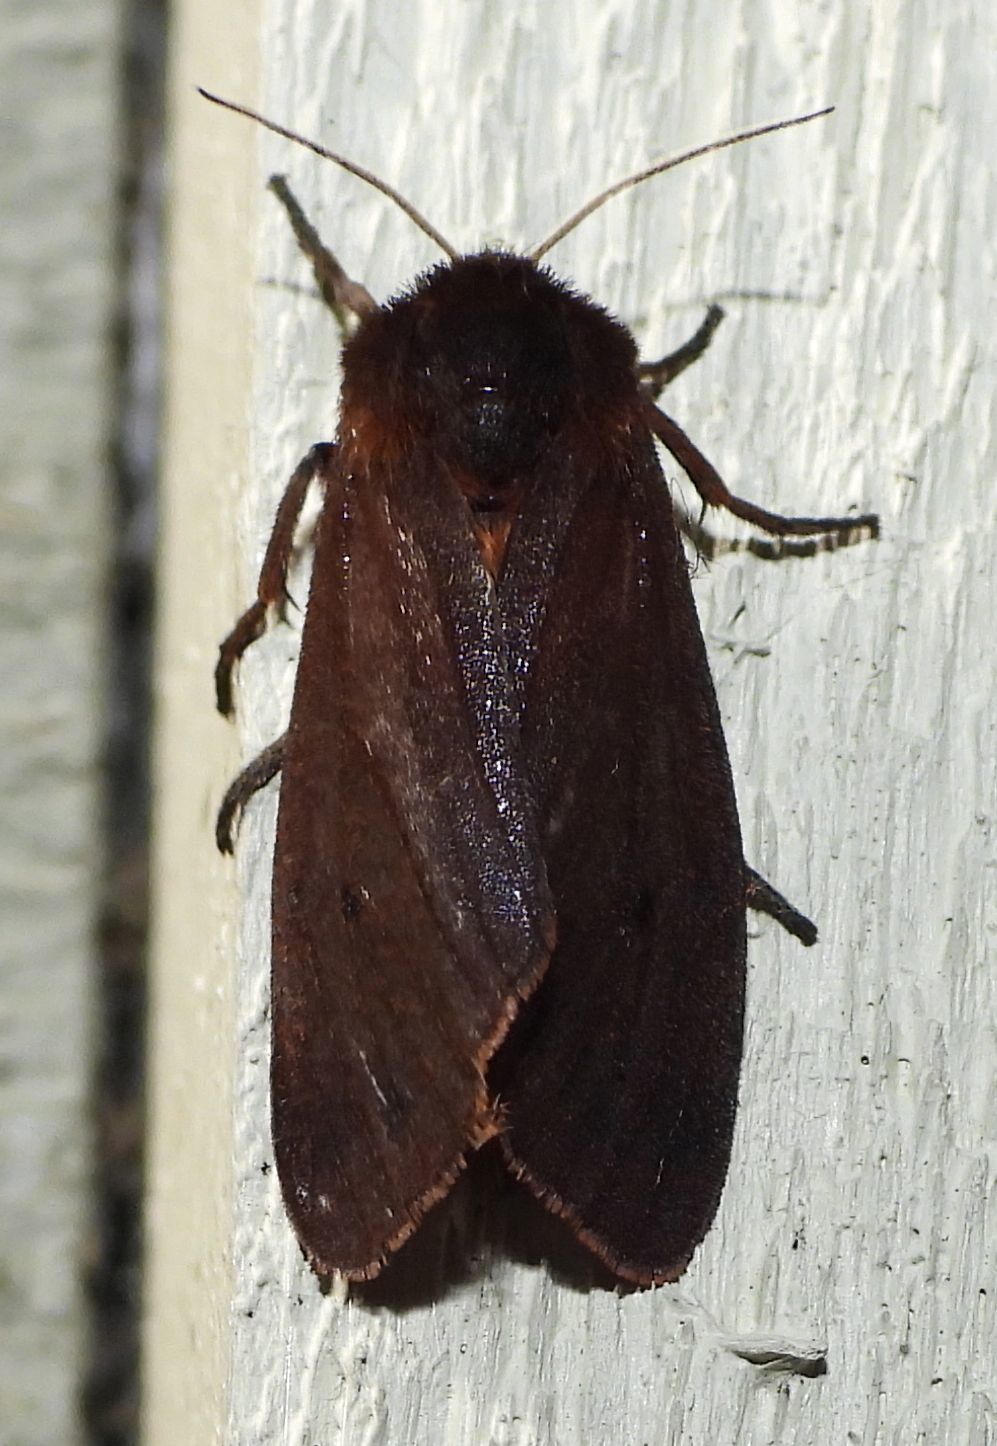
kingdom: Animalia
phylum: Arthropoda
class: Insecta
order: Lepidoptera
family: Erebidae
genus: Phragmatobia
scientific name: Phragmatobia fuliginosa
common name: Ruby tiger
